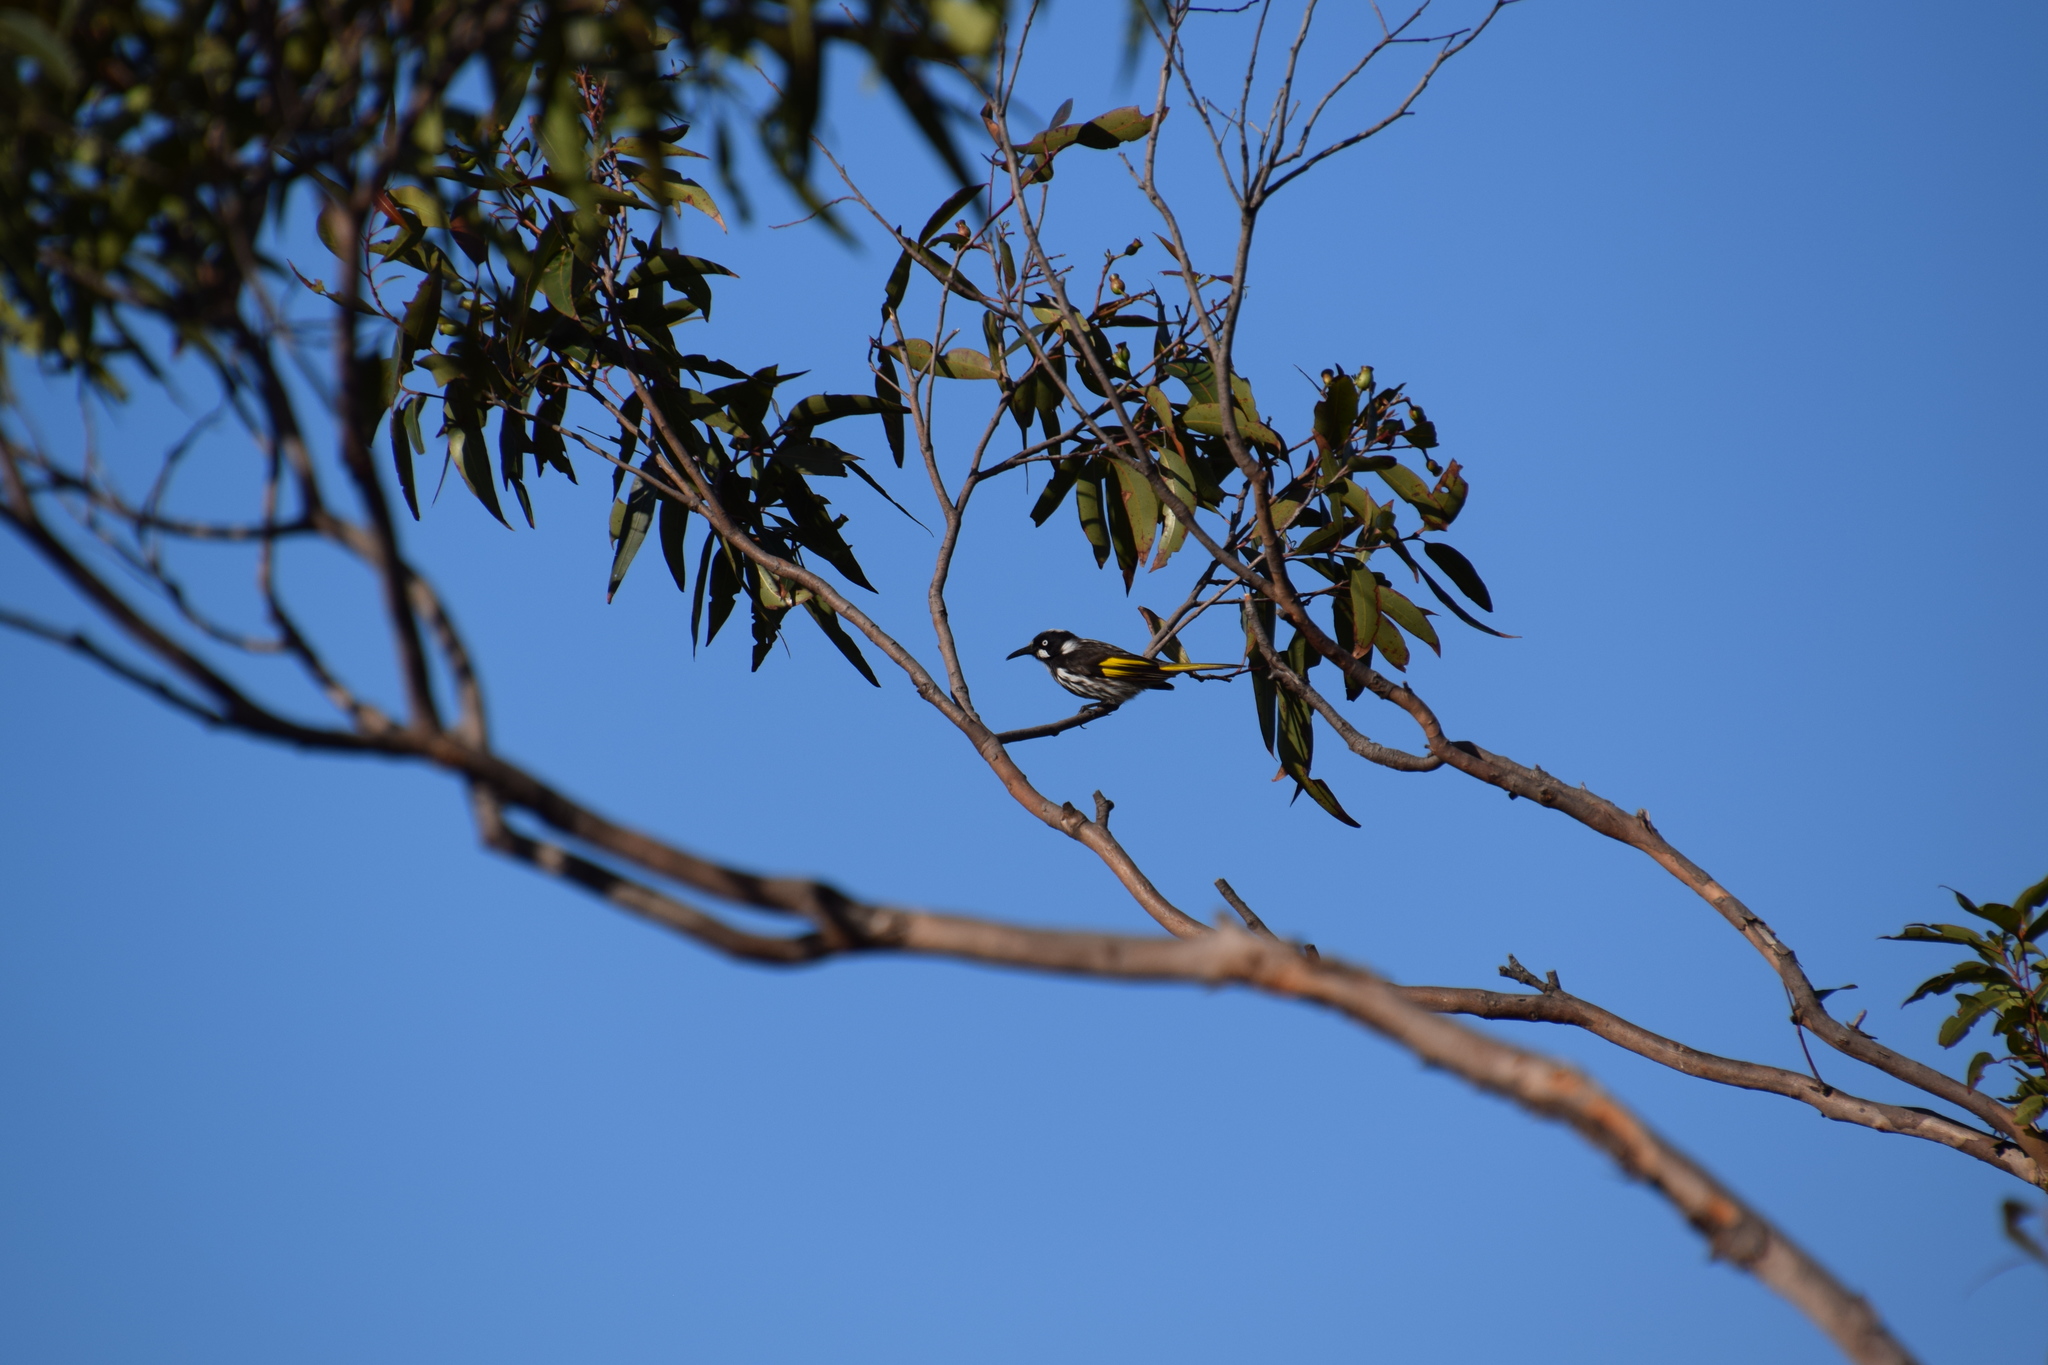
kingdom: Animalia
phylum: Chordata
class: Aves
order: Passeriformes
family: Meliphagidae
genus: Phylidonyris
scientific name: Phylidonyris novaehollandiae
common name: New holland honeyeater
